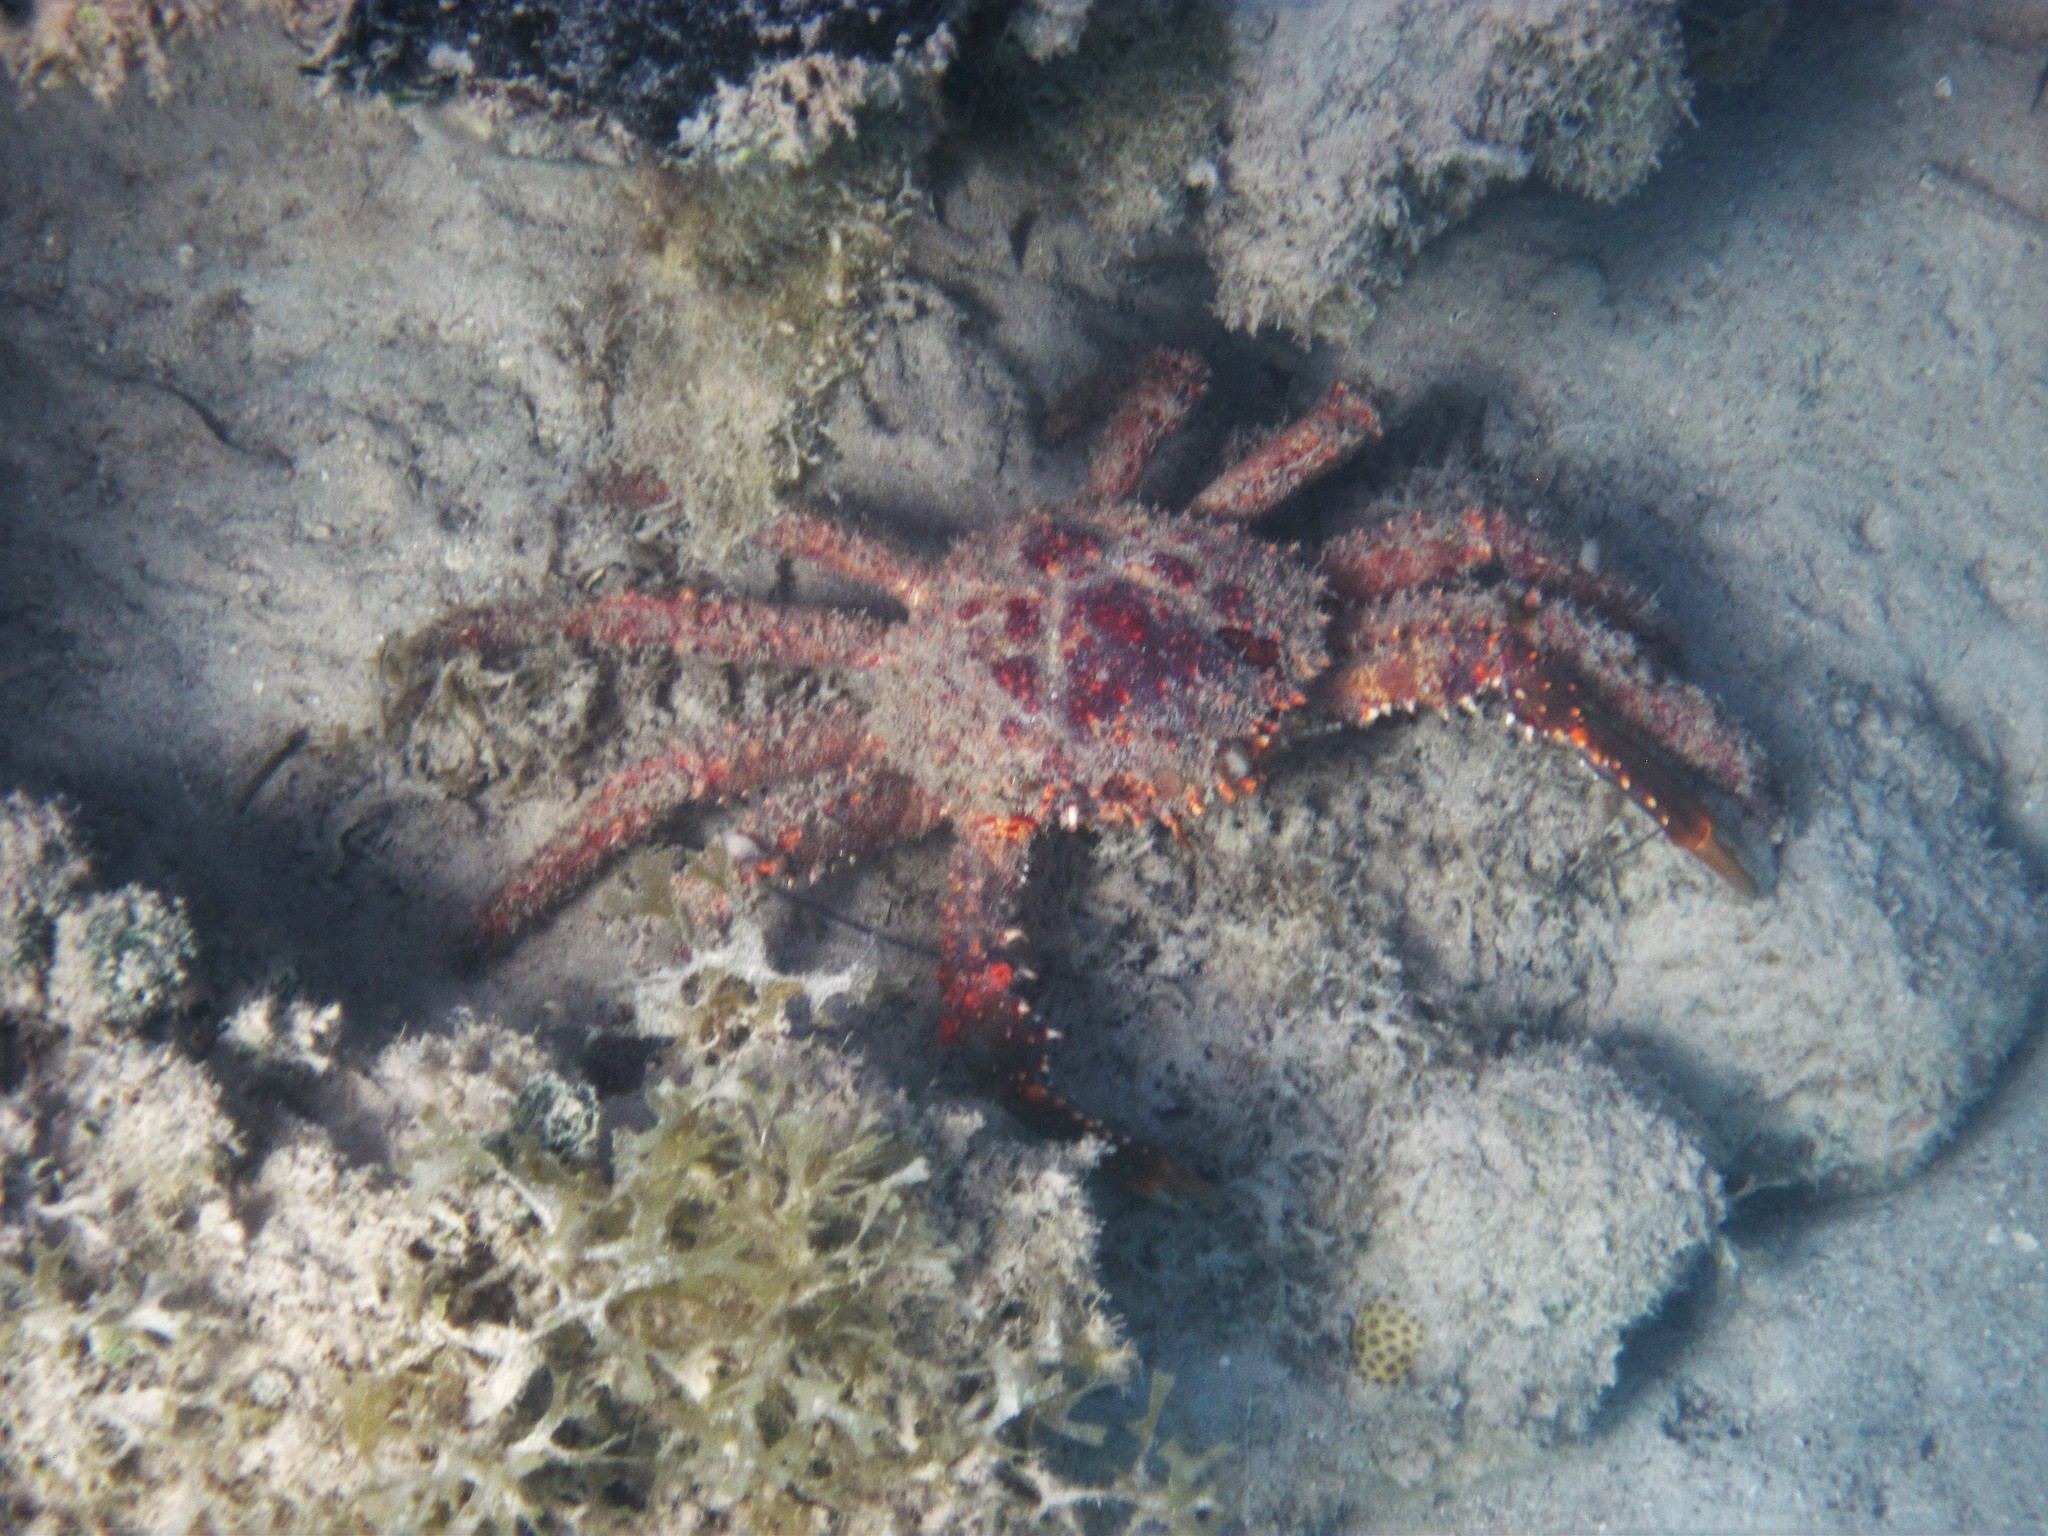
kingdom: Animalia
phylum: Arthropoda
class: Malacostraca
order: Decapoda
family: Mithracidae
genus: Maguimithrax
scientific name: Maguimithrax spinosissimus
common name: Spiny spider crab
